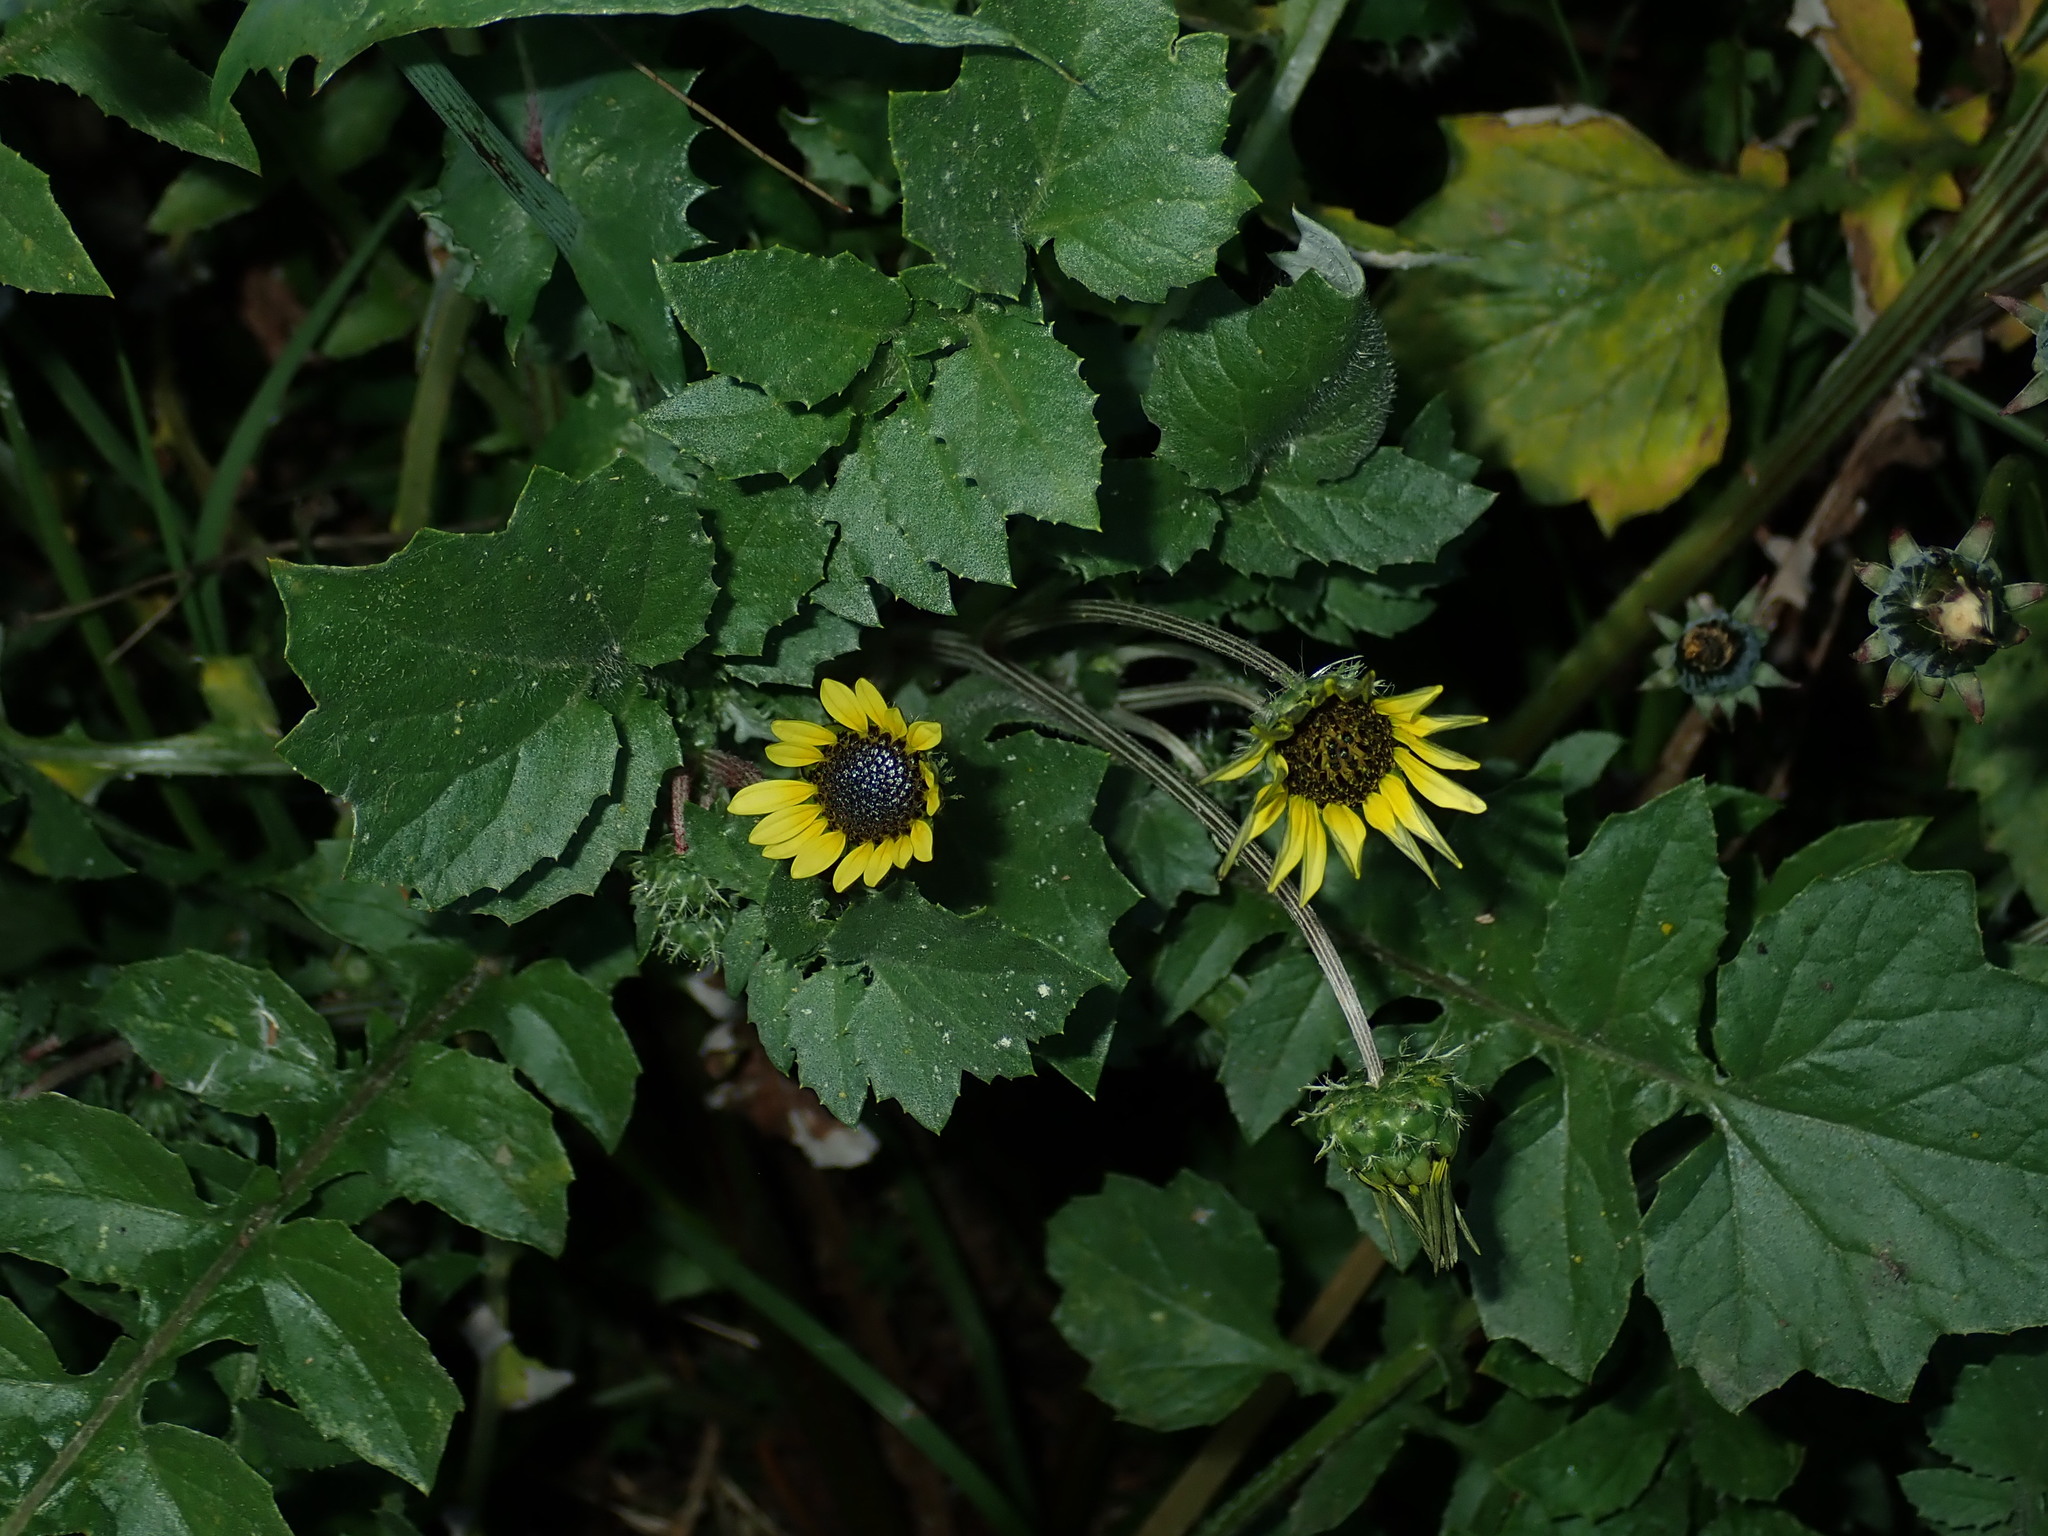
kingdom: Plantae
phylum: Tracheophyta
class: Magnoliopsida
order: Asterales
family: Asteraceae
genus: Arctotheca
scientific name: Arctotheca calendula
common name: Capeweed
